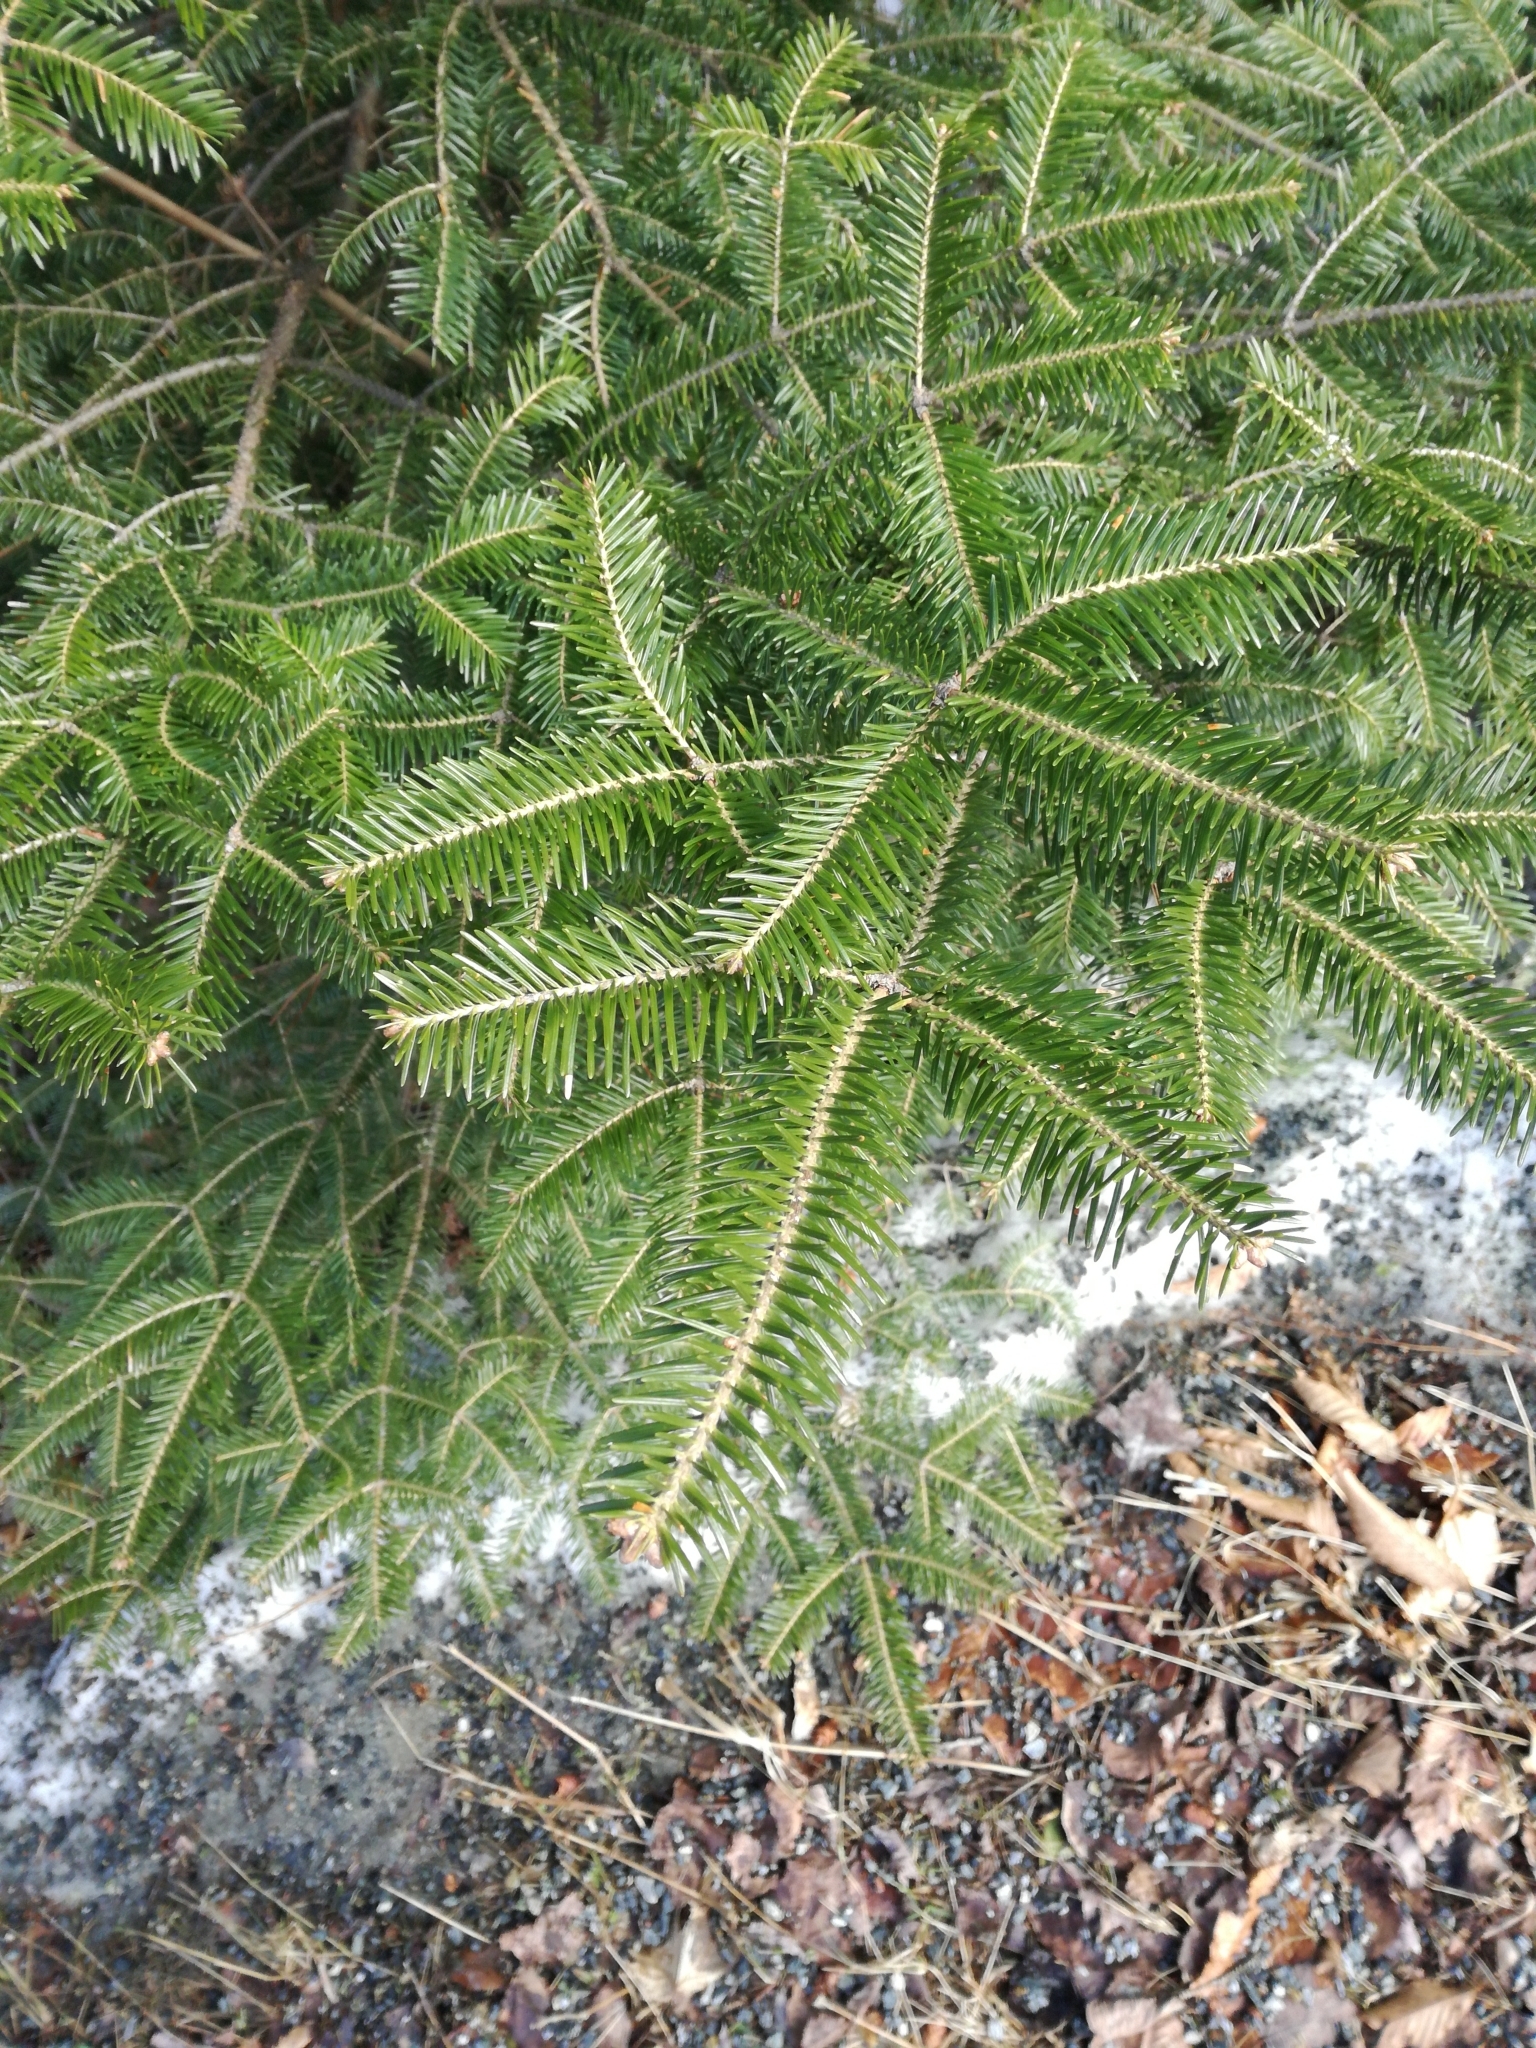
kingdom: Plantae
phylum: Tracheophyta
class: Pinopsida
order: Pinales
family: Pinaceae
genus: Abies
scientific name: Abies balsamea
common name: Balsam fir
